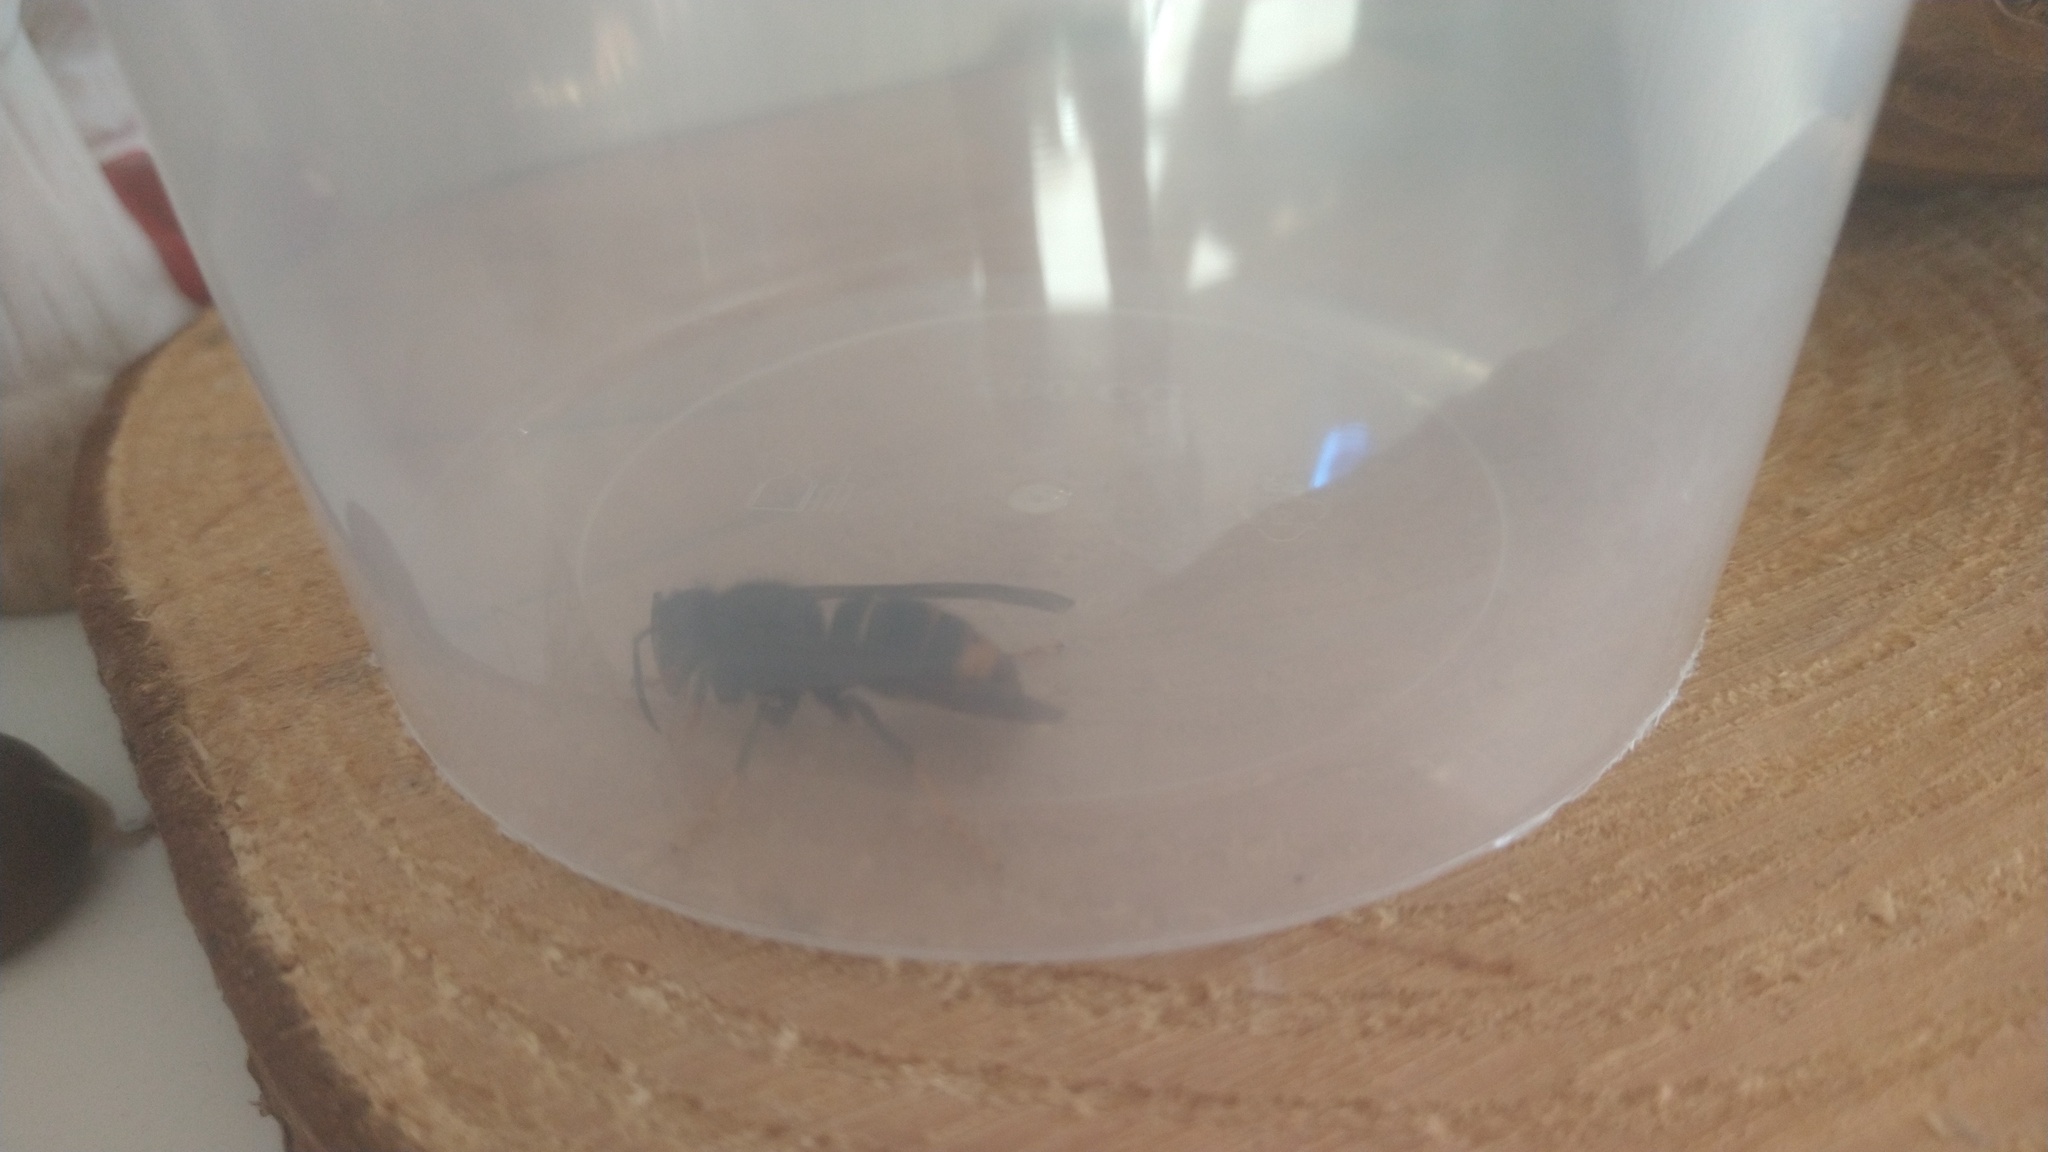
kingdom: Animalia
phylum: Arthropoda
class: Insecta
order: Hymenoptera
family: Vespidae
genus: Vespa
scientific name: Vespa velutina
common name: Asian hornet
